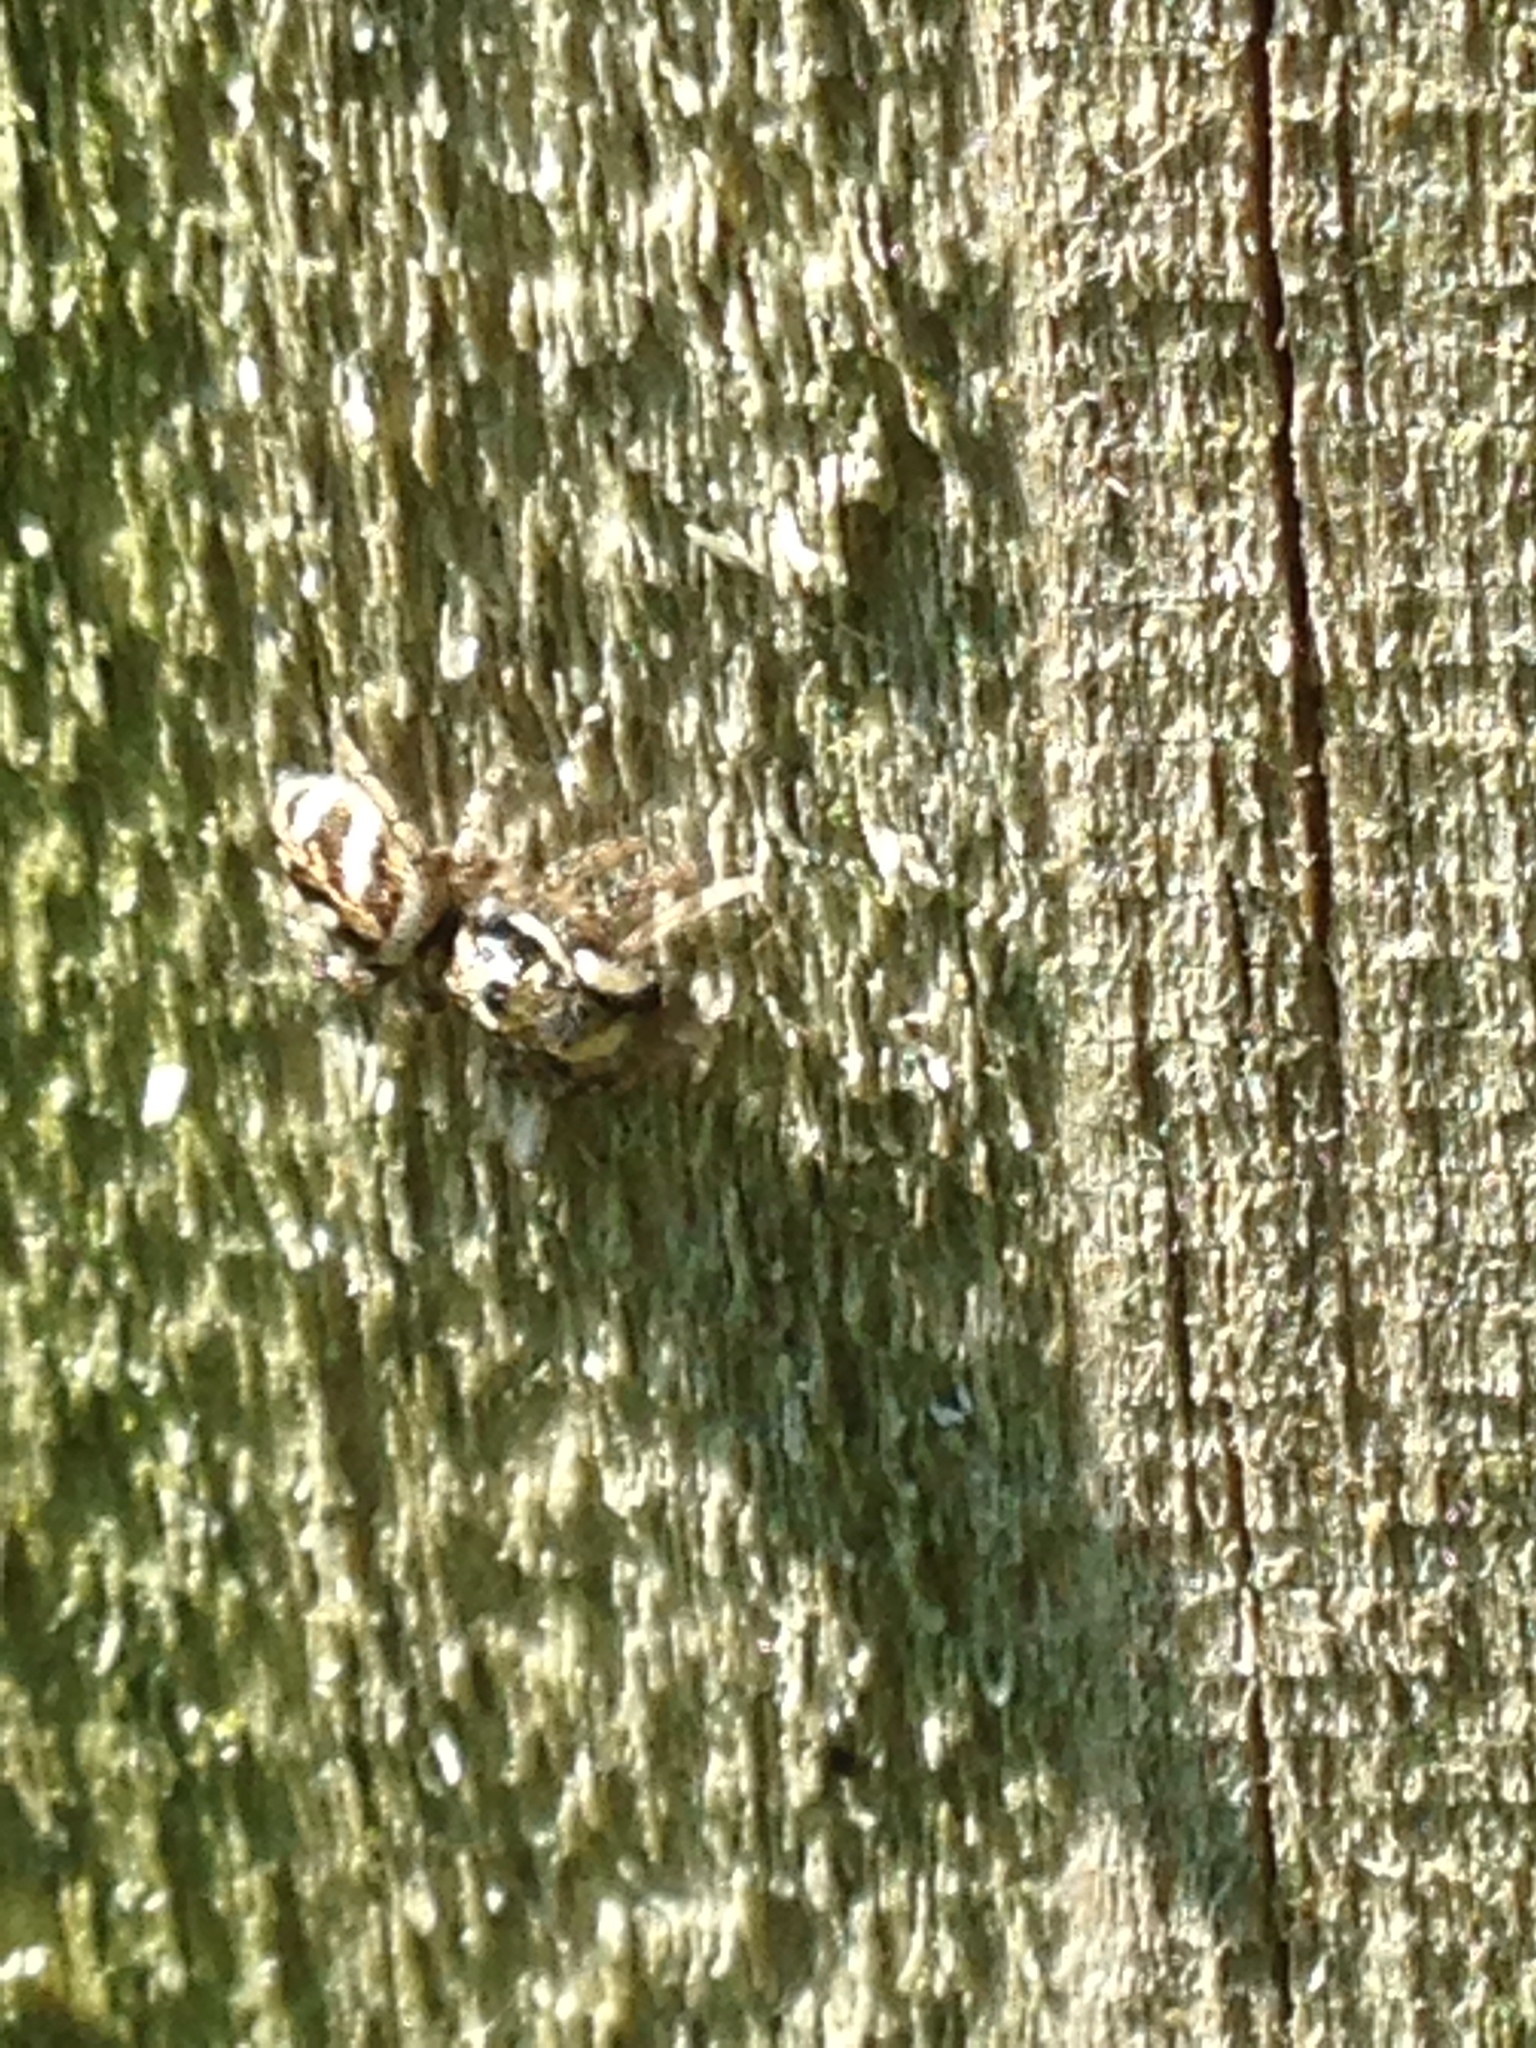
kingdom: Animalia
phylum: Arthropoda
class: Arachnida
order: Araneae
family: Salticidae
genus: Salticus
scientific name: Salticus scenicus
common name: Zebra jumper
